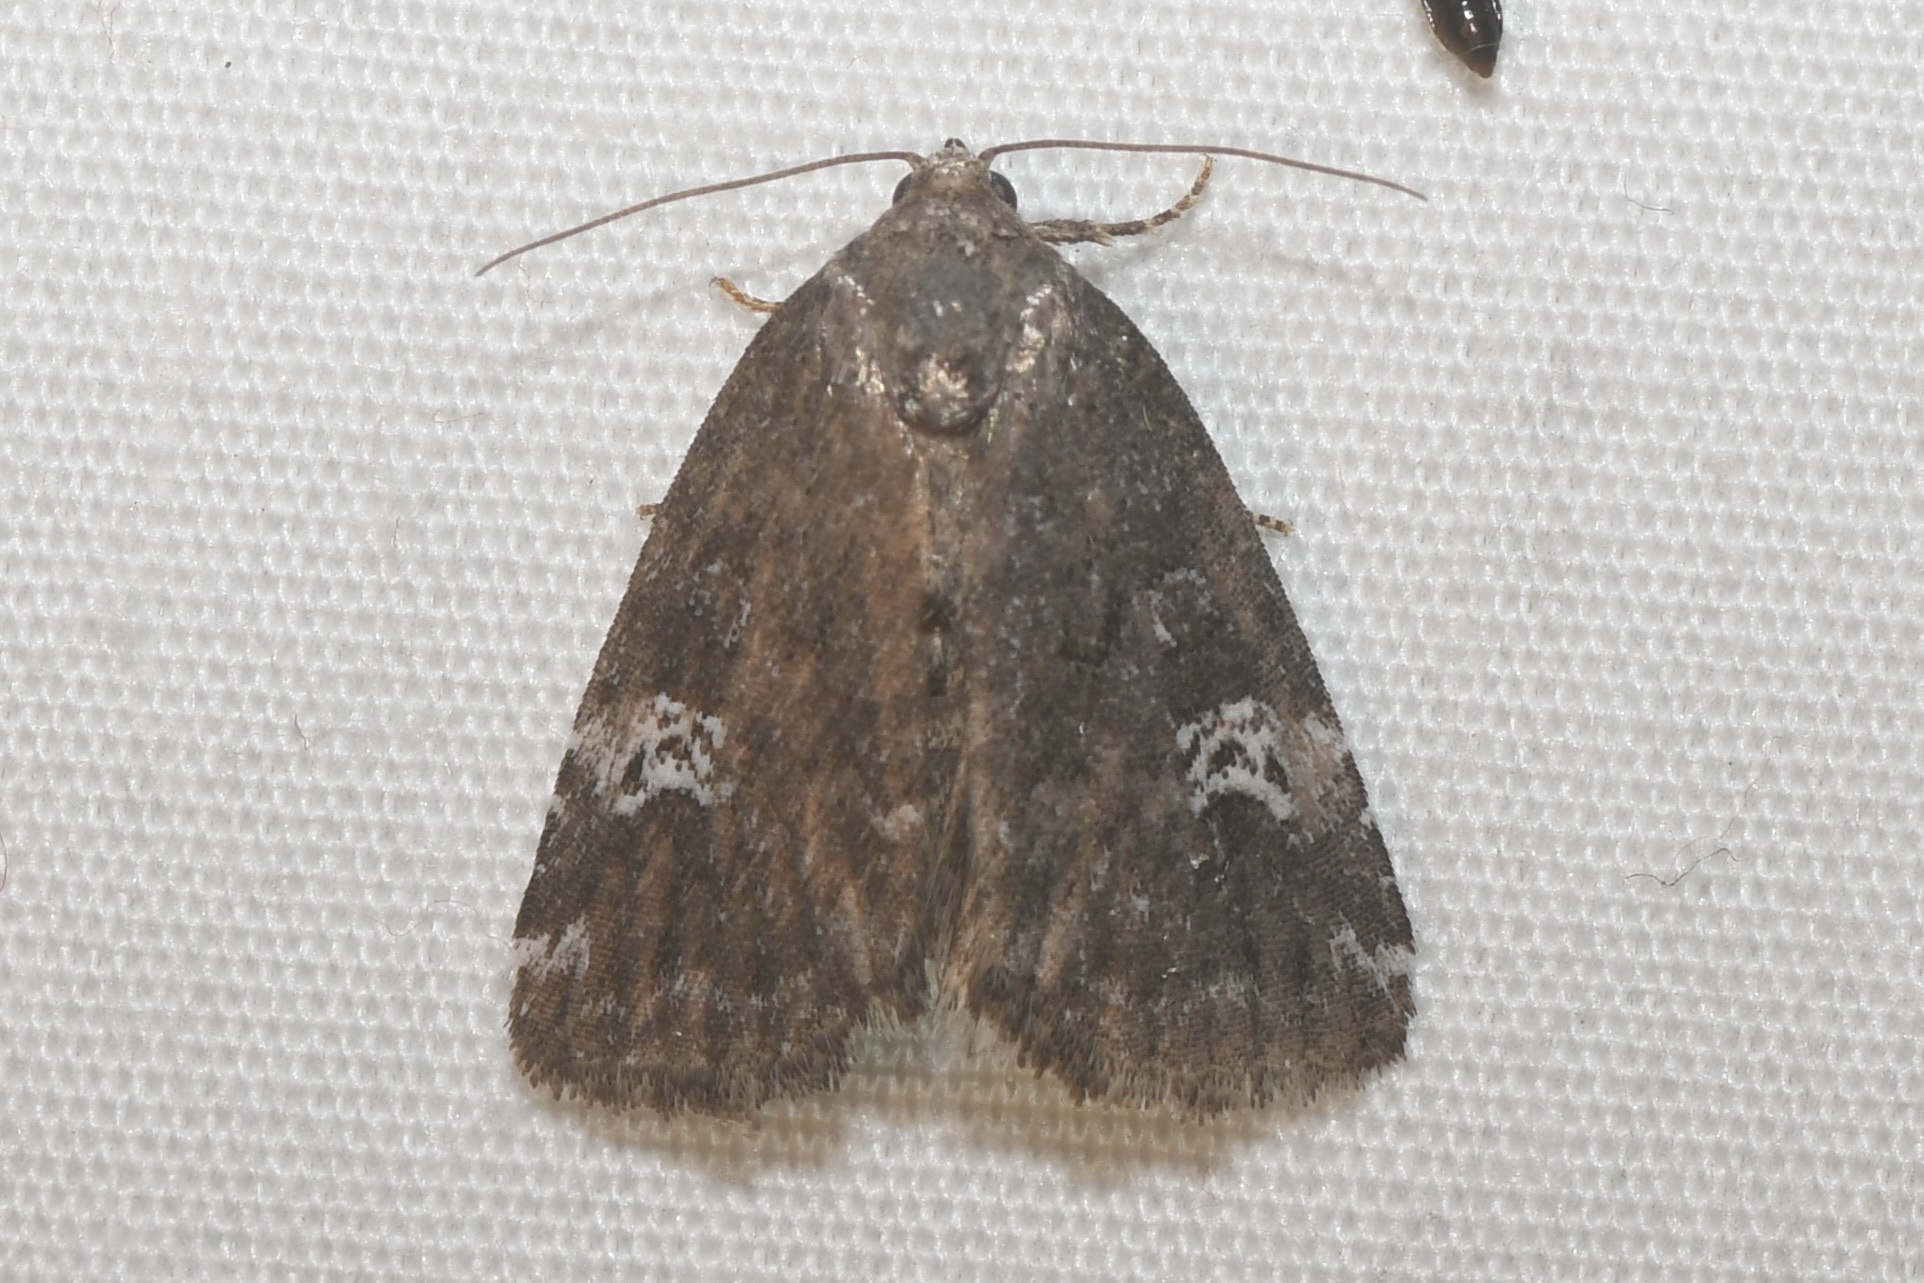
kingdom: Animalia
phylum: Arthropoda
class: Insecta
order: Lepidoptera
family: Noctuidae
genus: Anterastria
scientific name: Anterastria teratophora
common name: Gray marvel moth
